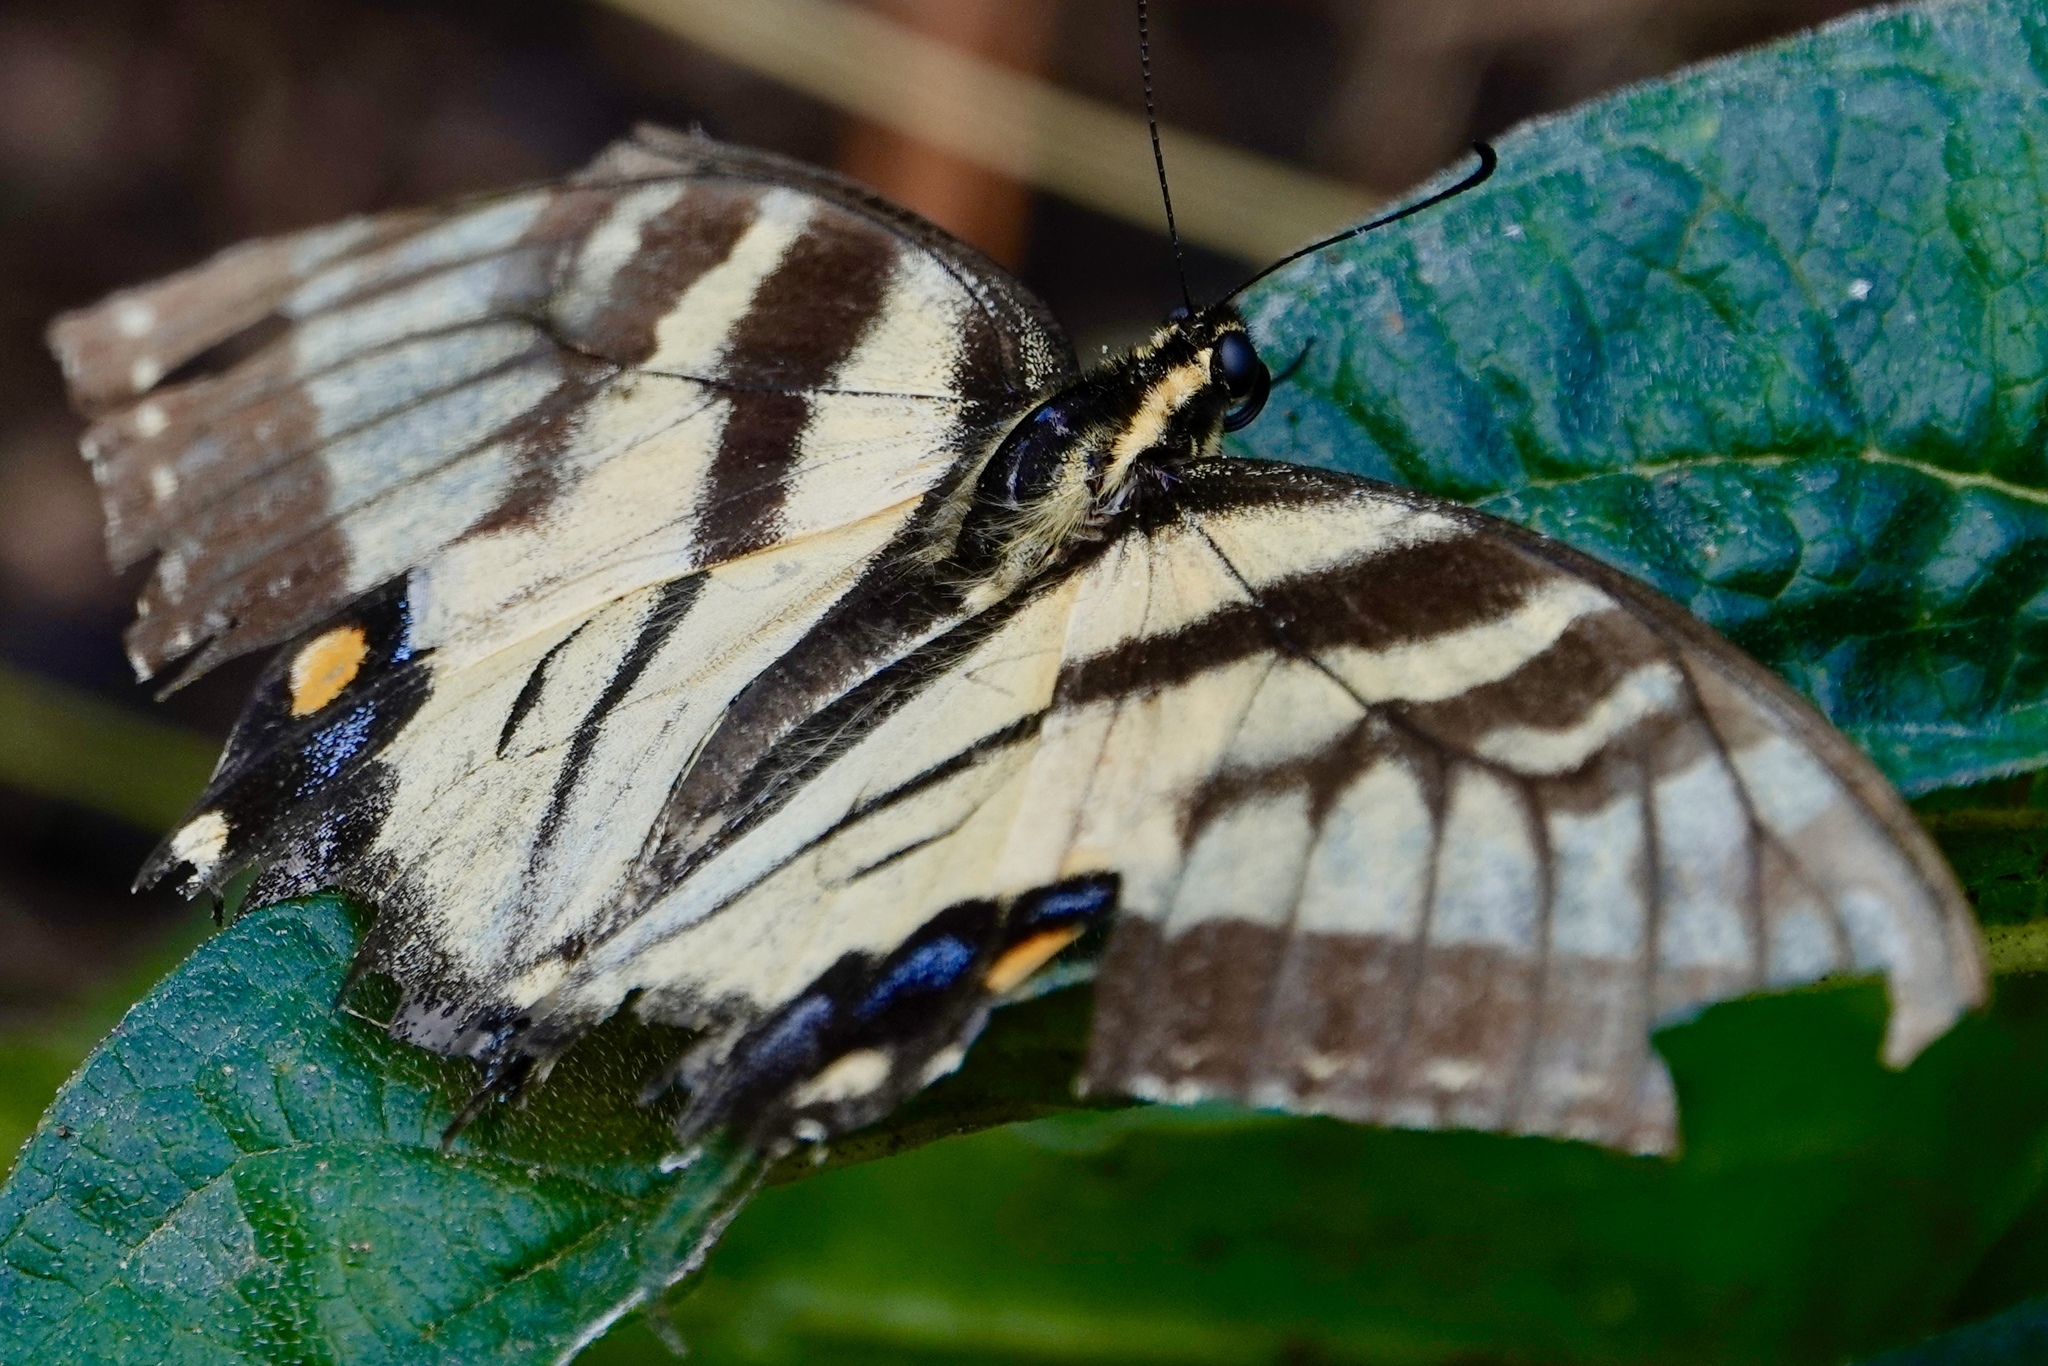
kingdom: Animalia
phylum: Arthropoda
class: Insecta
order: Lepidoptera
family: Papilionidae
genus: Papilio
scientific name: Papilio glaucus
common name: Tiger swallowtail
